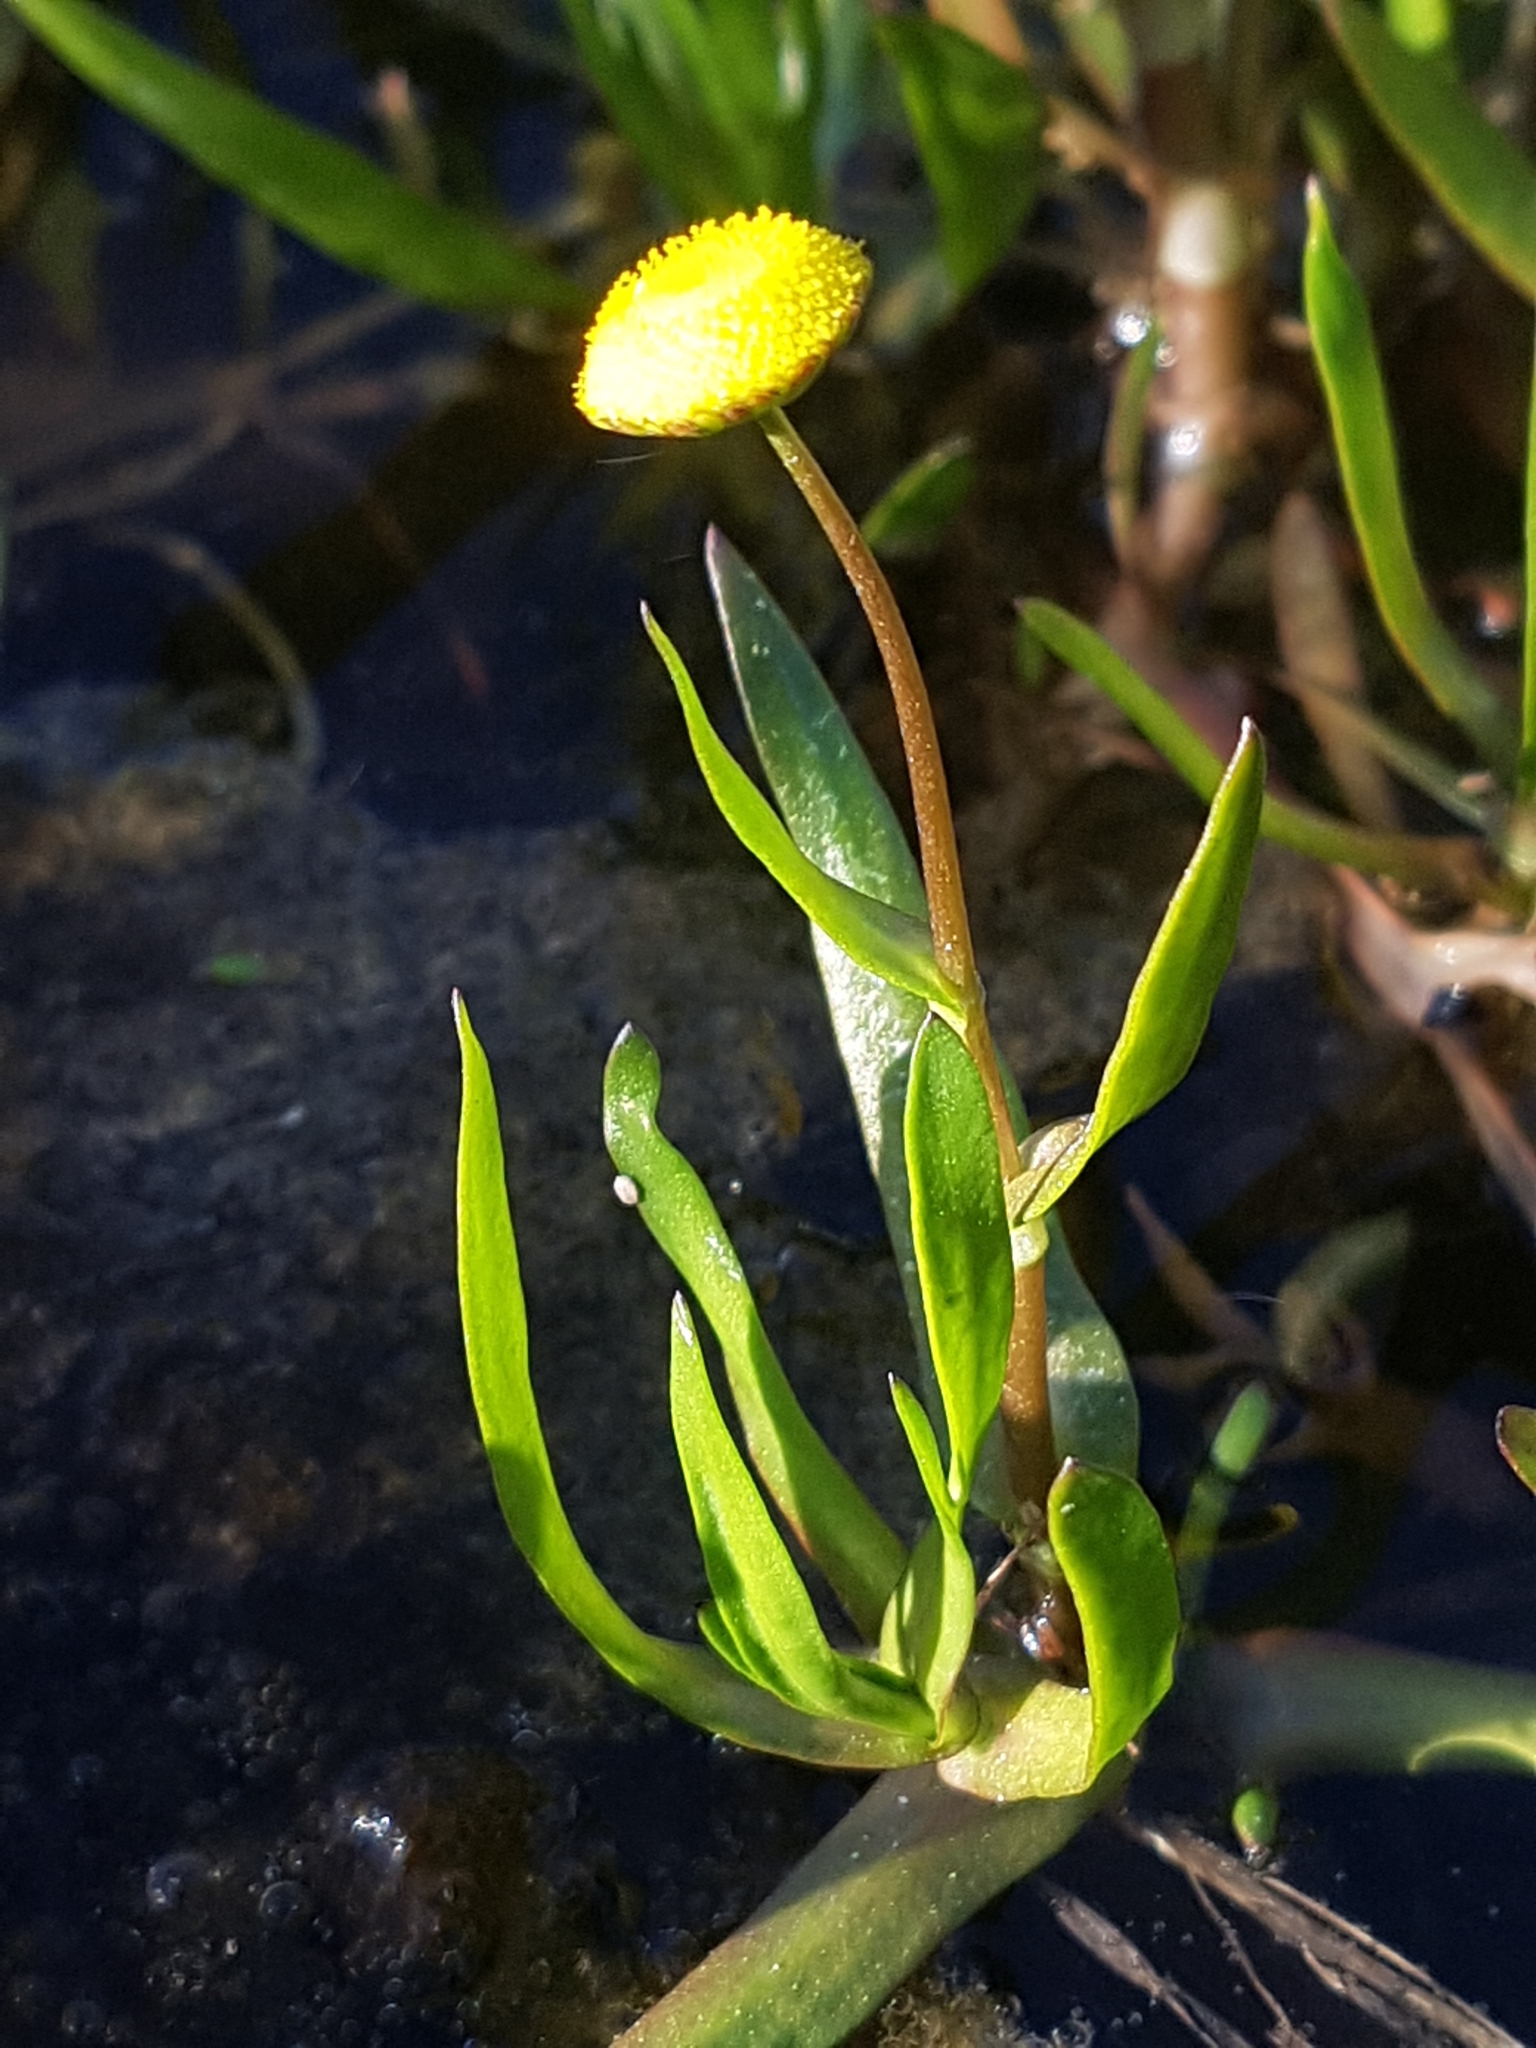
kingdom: Plantae
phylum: Tracheophyta
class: Magnoliopsida
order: Asterales
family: Asteraceae
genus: Cotula
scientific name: Cotula coronopifolia
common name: Buttonweed
